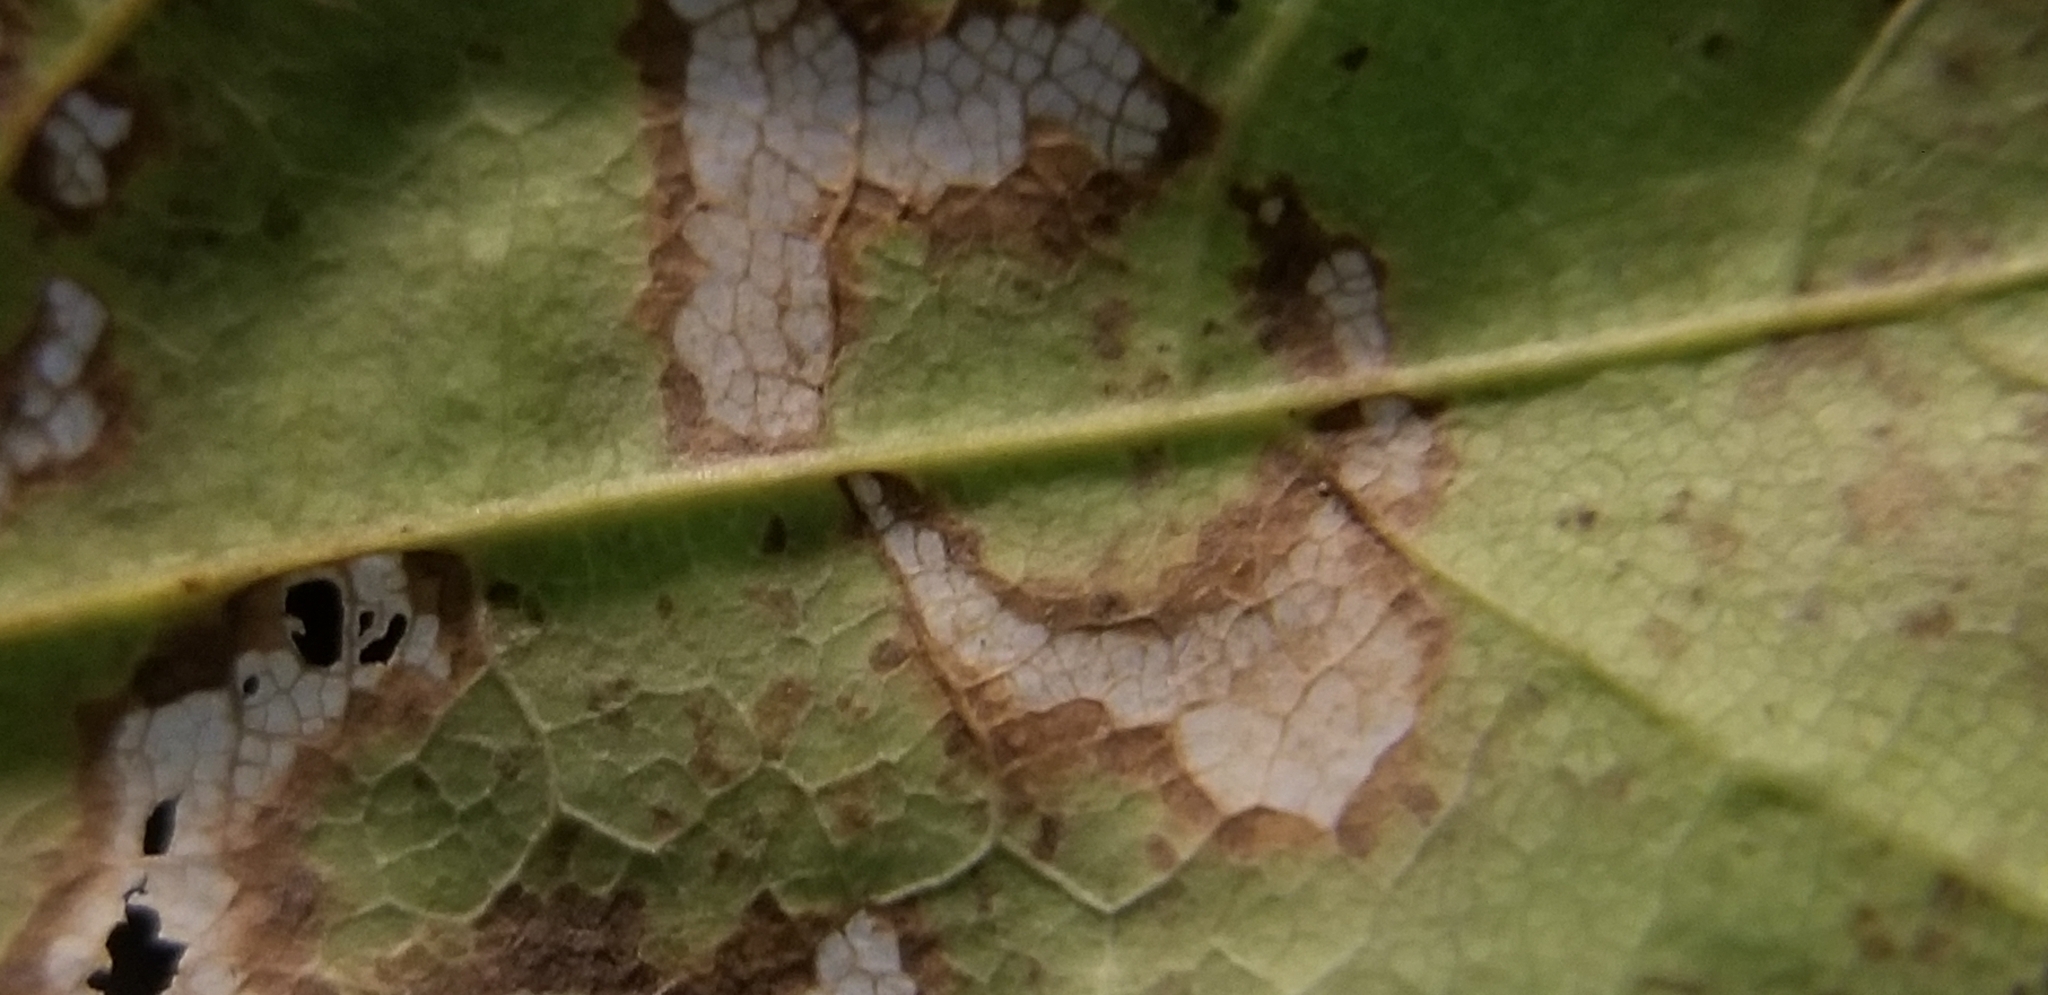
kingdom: Animalia
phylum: Arthropoda
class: Insecta
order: Lepidoptera
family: Incurvariidae
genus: Paraclemensia
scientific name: Paraclemensia acerifoliella
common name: Maple leafcutter
